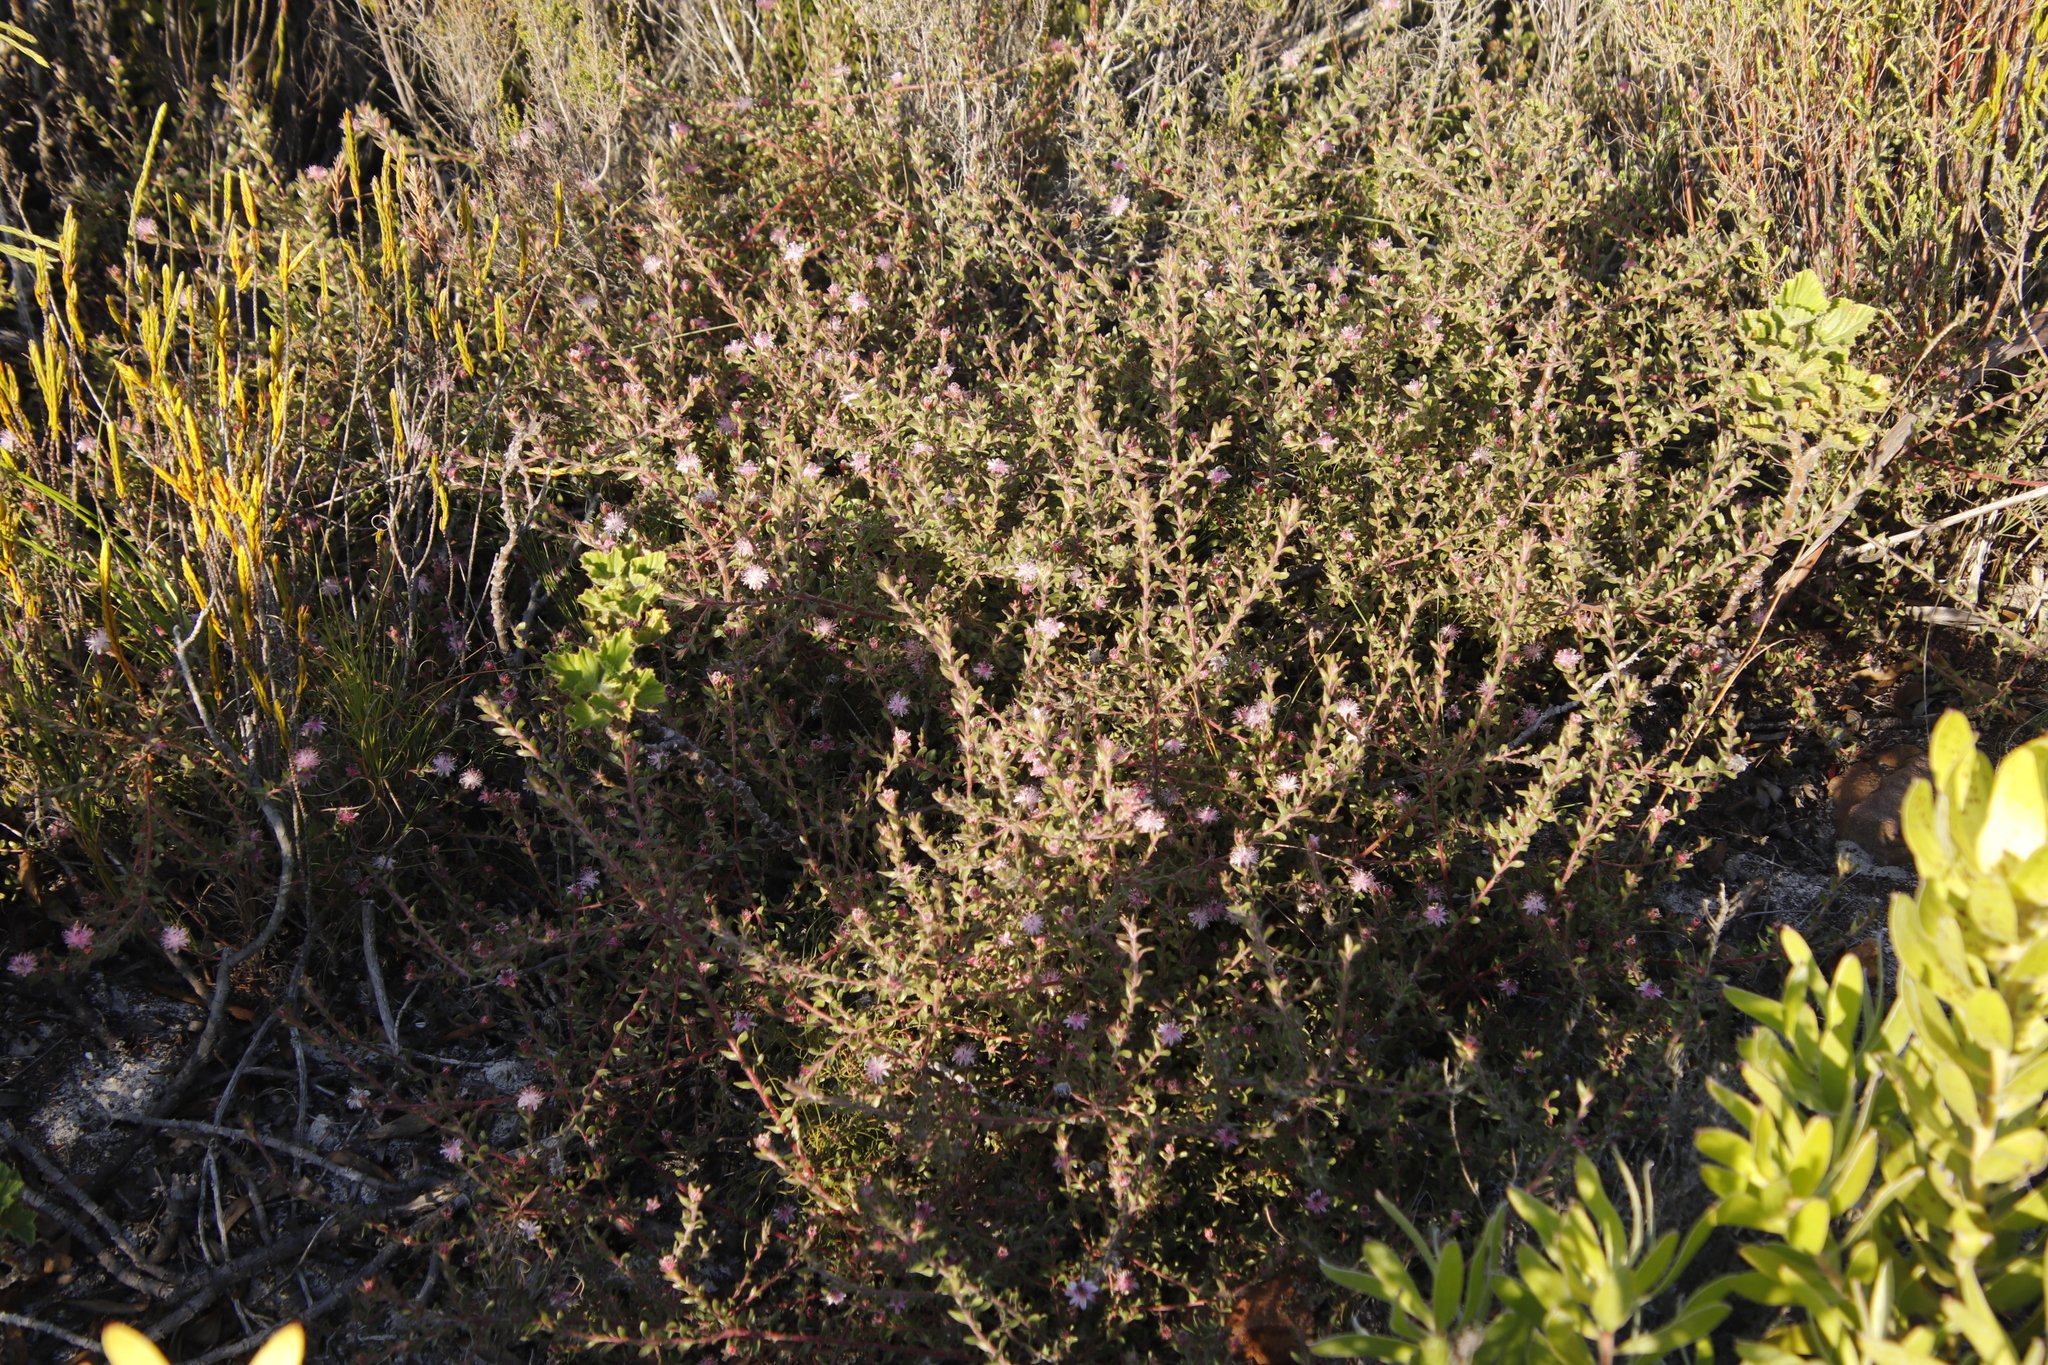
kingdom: Plantae
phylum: Tracheophyta
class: Magnoliopsida
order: Proteales
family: Proteaceae
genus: Diastella
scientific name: Diastella divaricata
